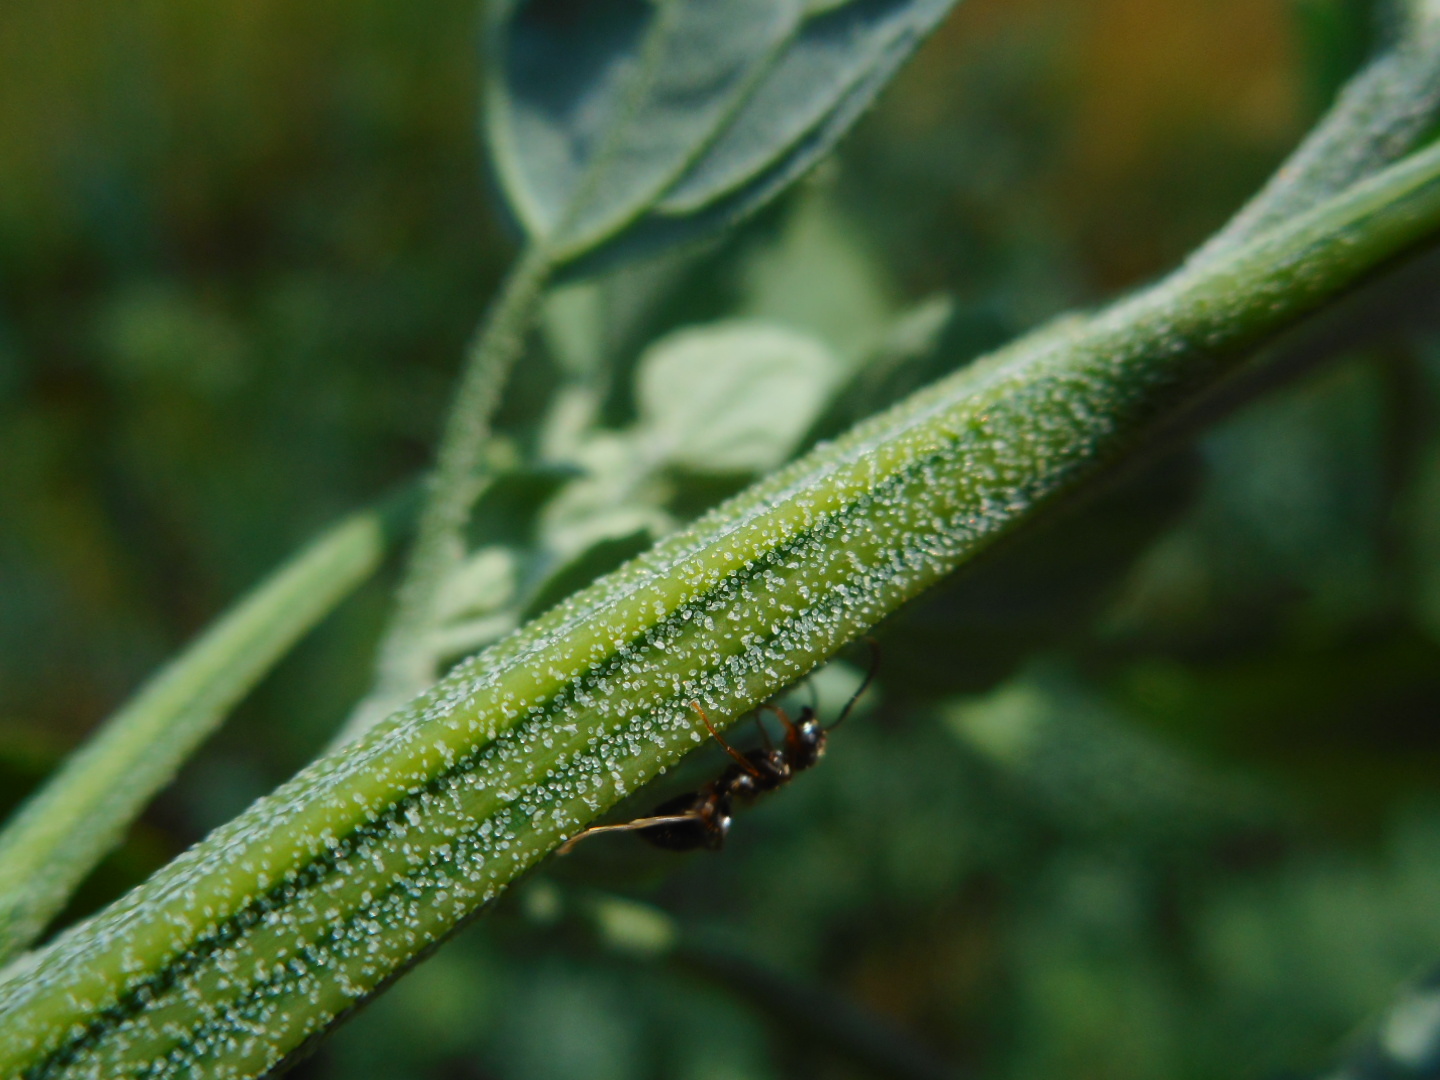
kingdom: Plantae
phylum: Tracheophyta
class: Magnoliopsida
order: Caryophyllales
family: Amaranthaceae
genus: Chenopodium
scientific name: Chenopodium album
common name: Fat-hen
